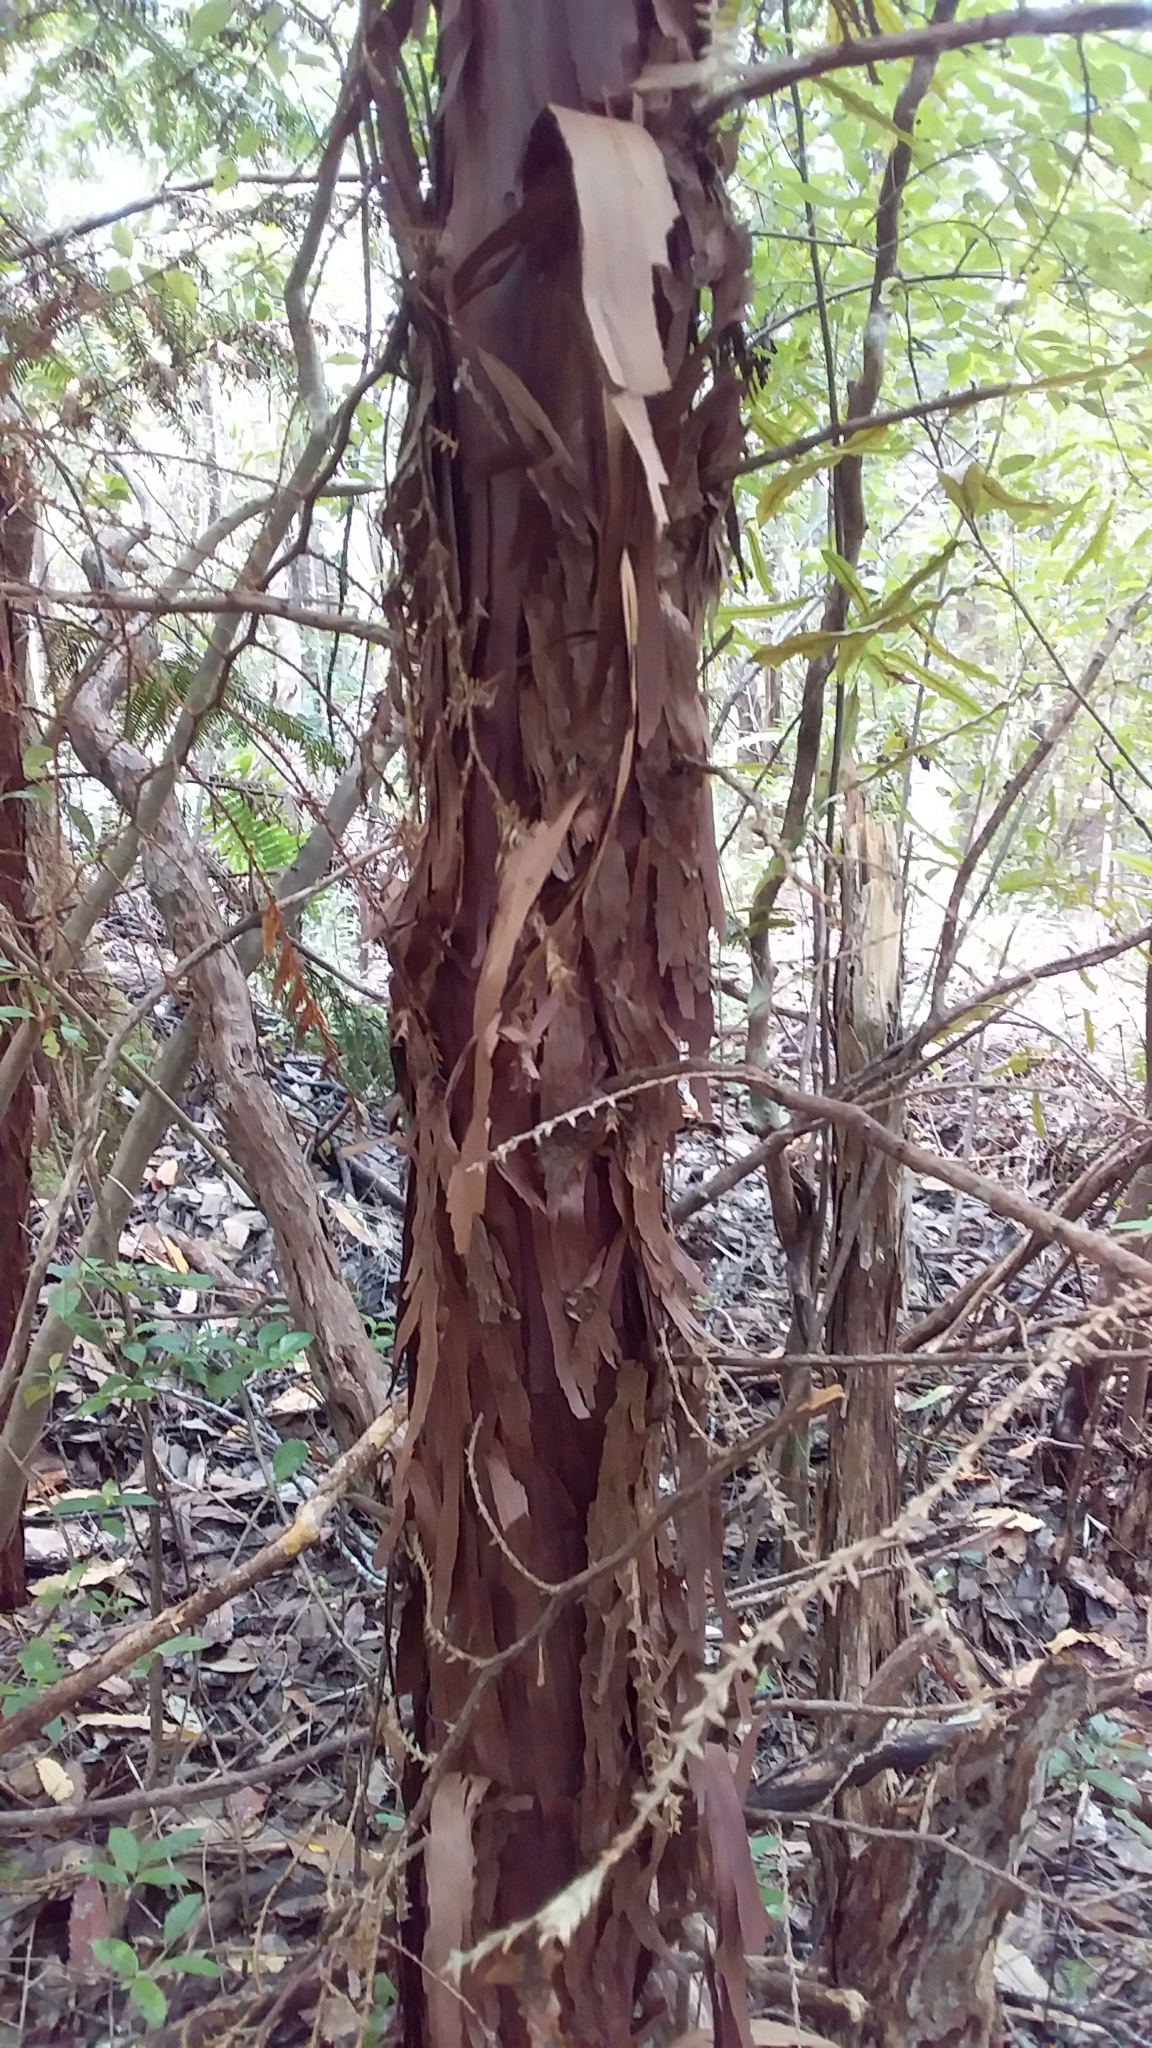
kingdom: Plantae
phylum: Tracheophyta
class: Pinopsida
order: Pinales
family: Cupressaceae
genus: Libocedrus
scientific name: Libocedrus plumosa
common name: New zealand cedar
